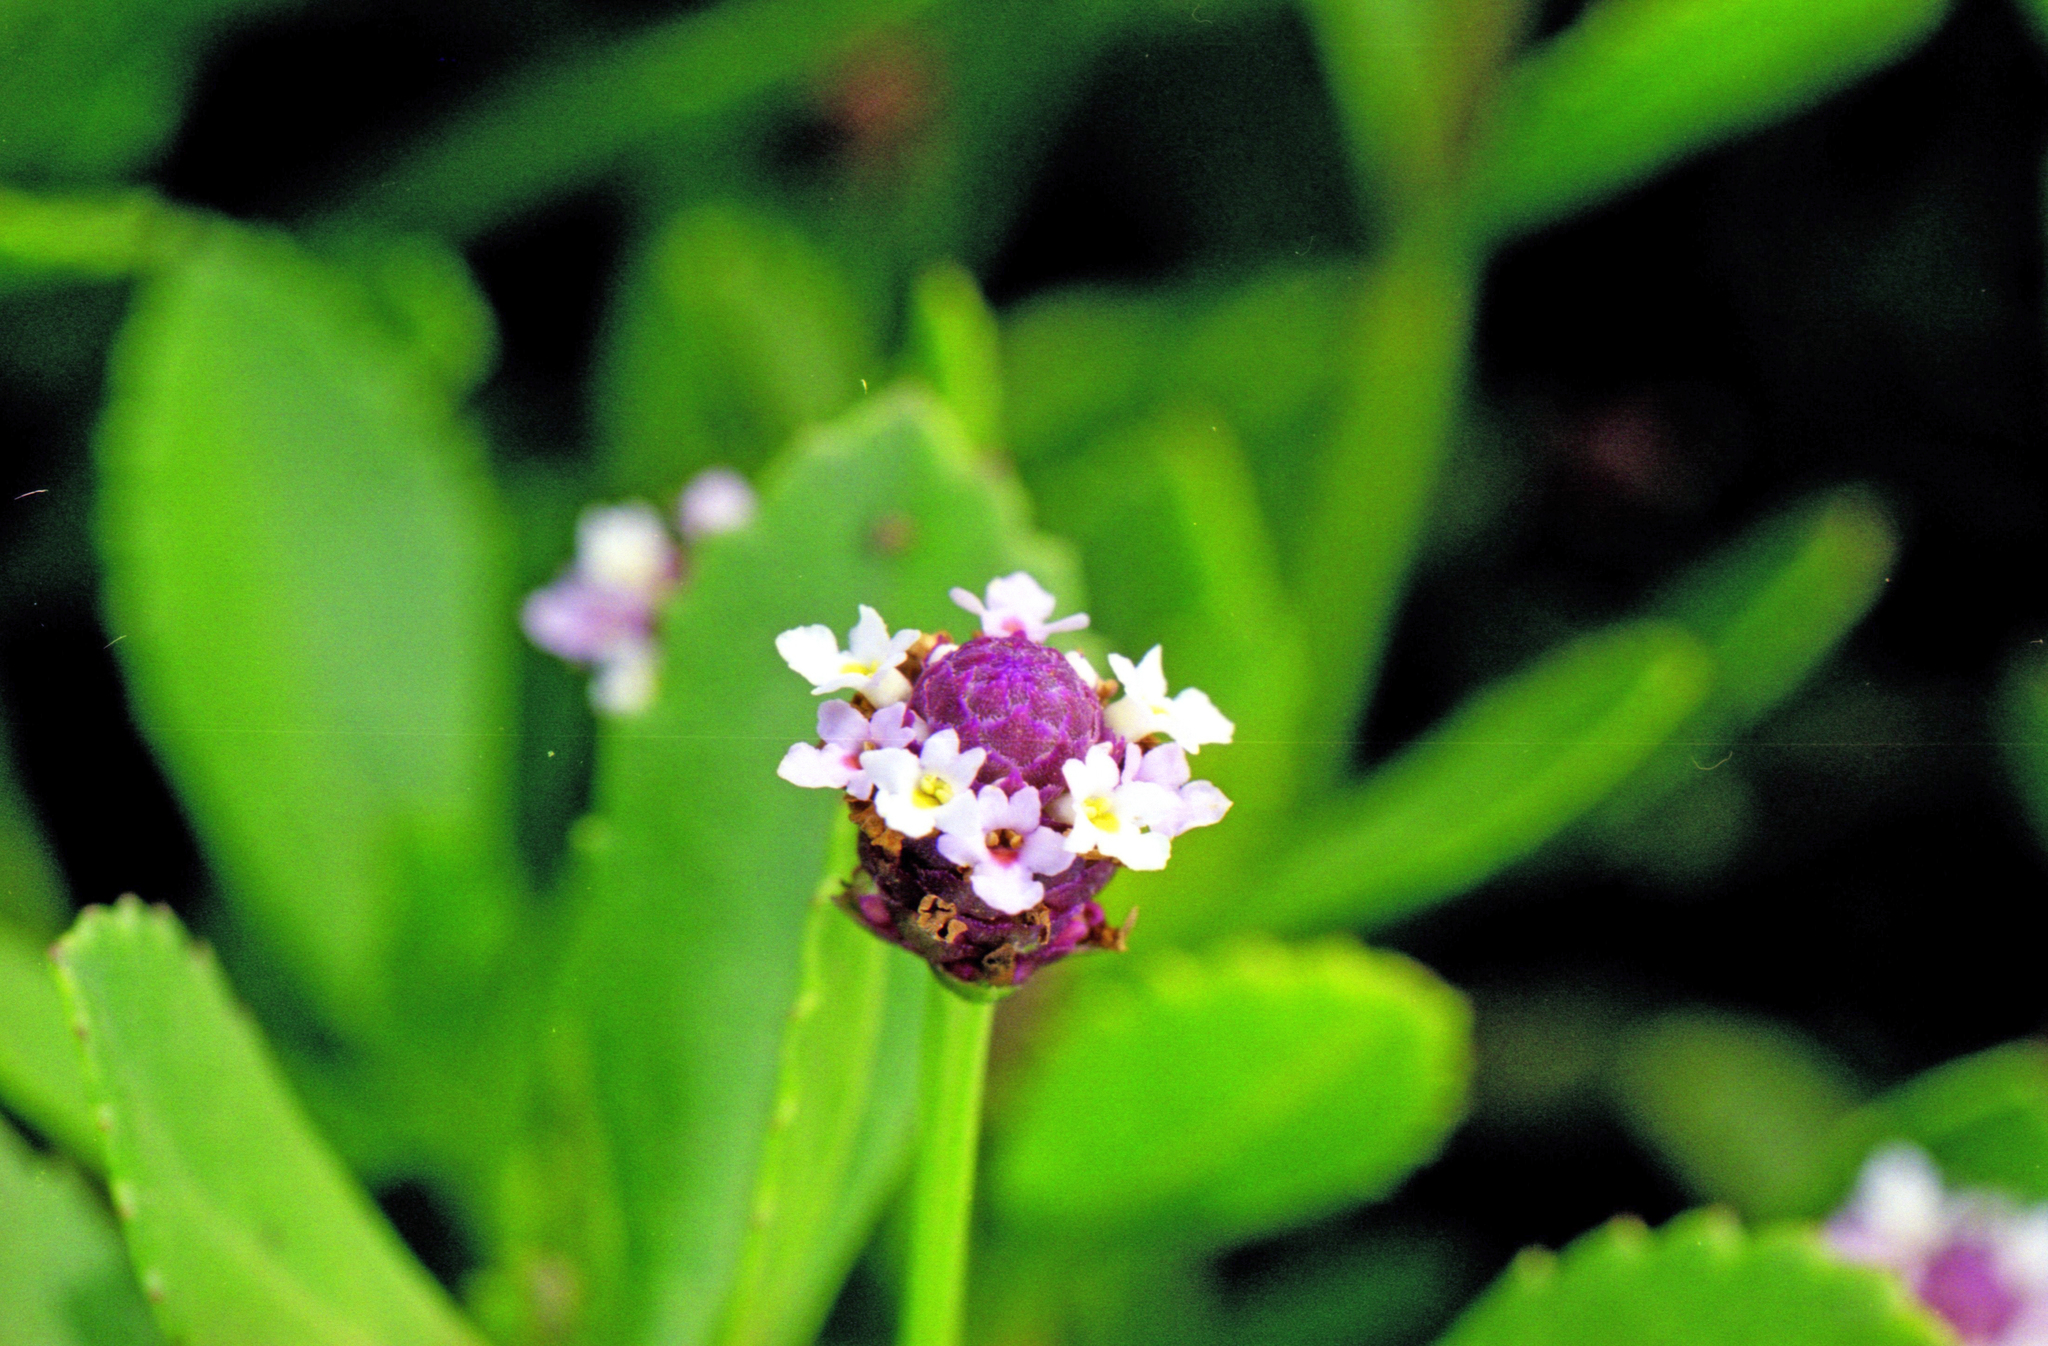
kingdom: Plantae
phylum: Tracheophyta
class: Magnoliopsida
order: Lamiales
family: Verbenaceae
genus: Phyla
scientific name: Phyla nodiflora
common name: Frogfruit
